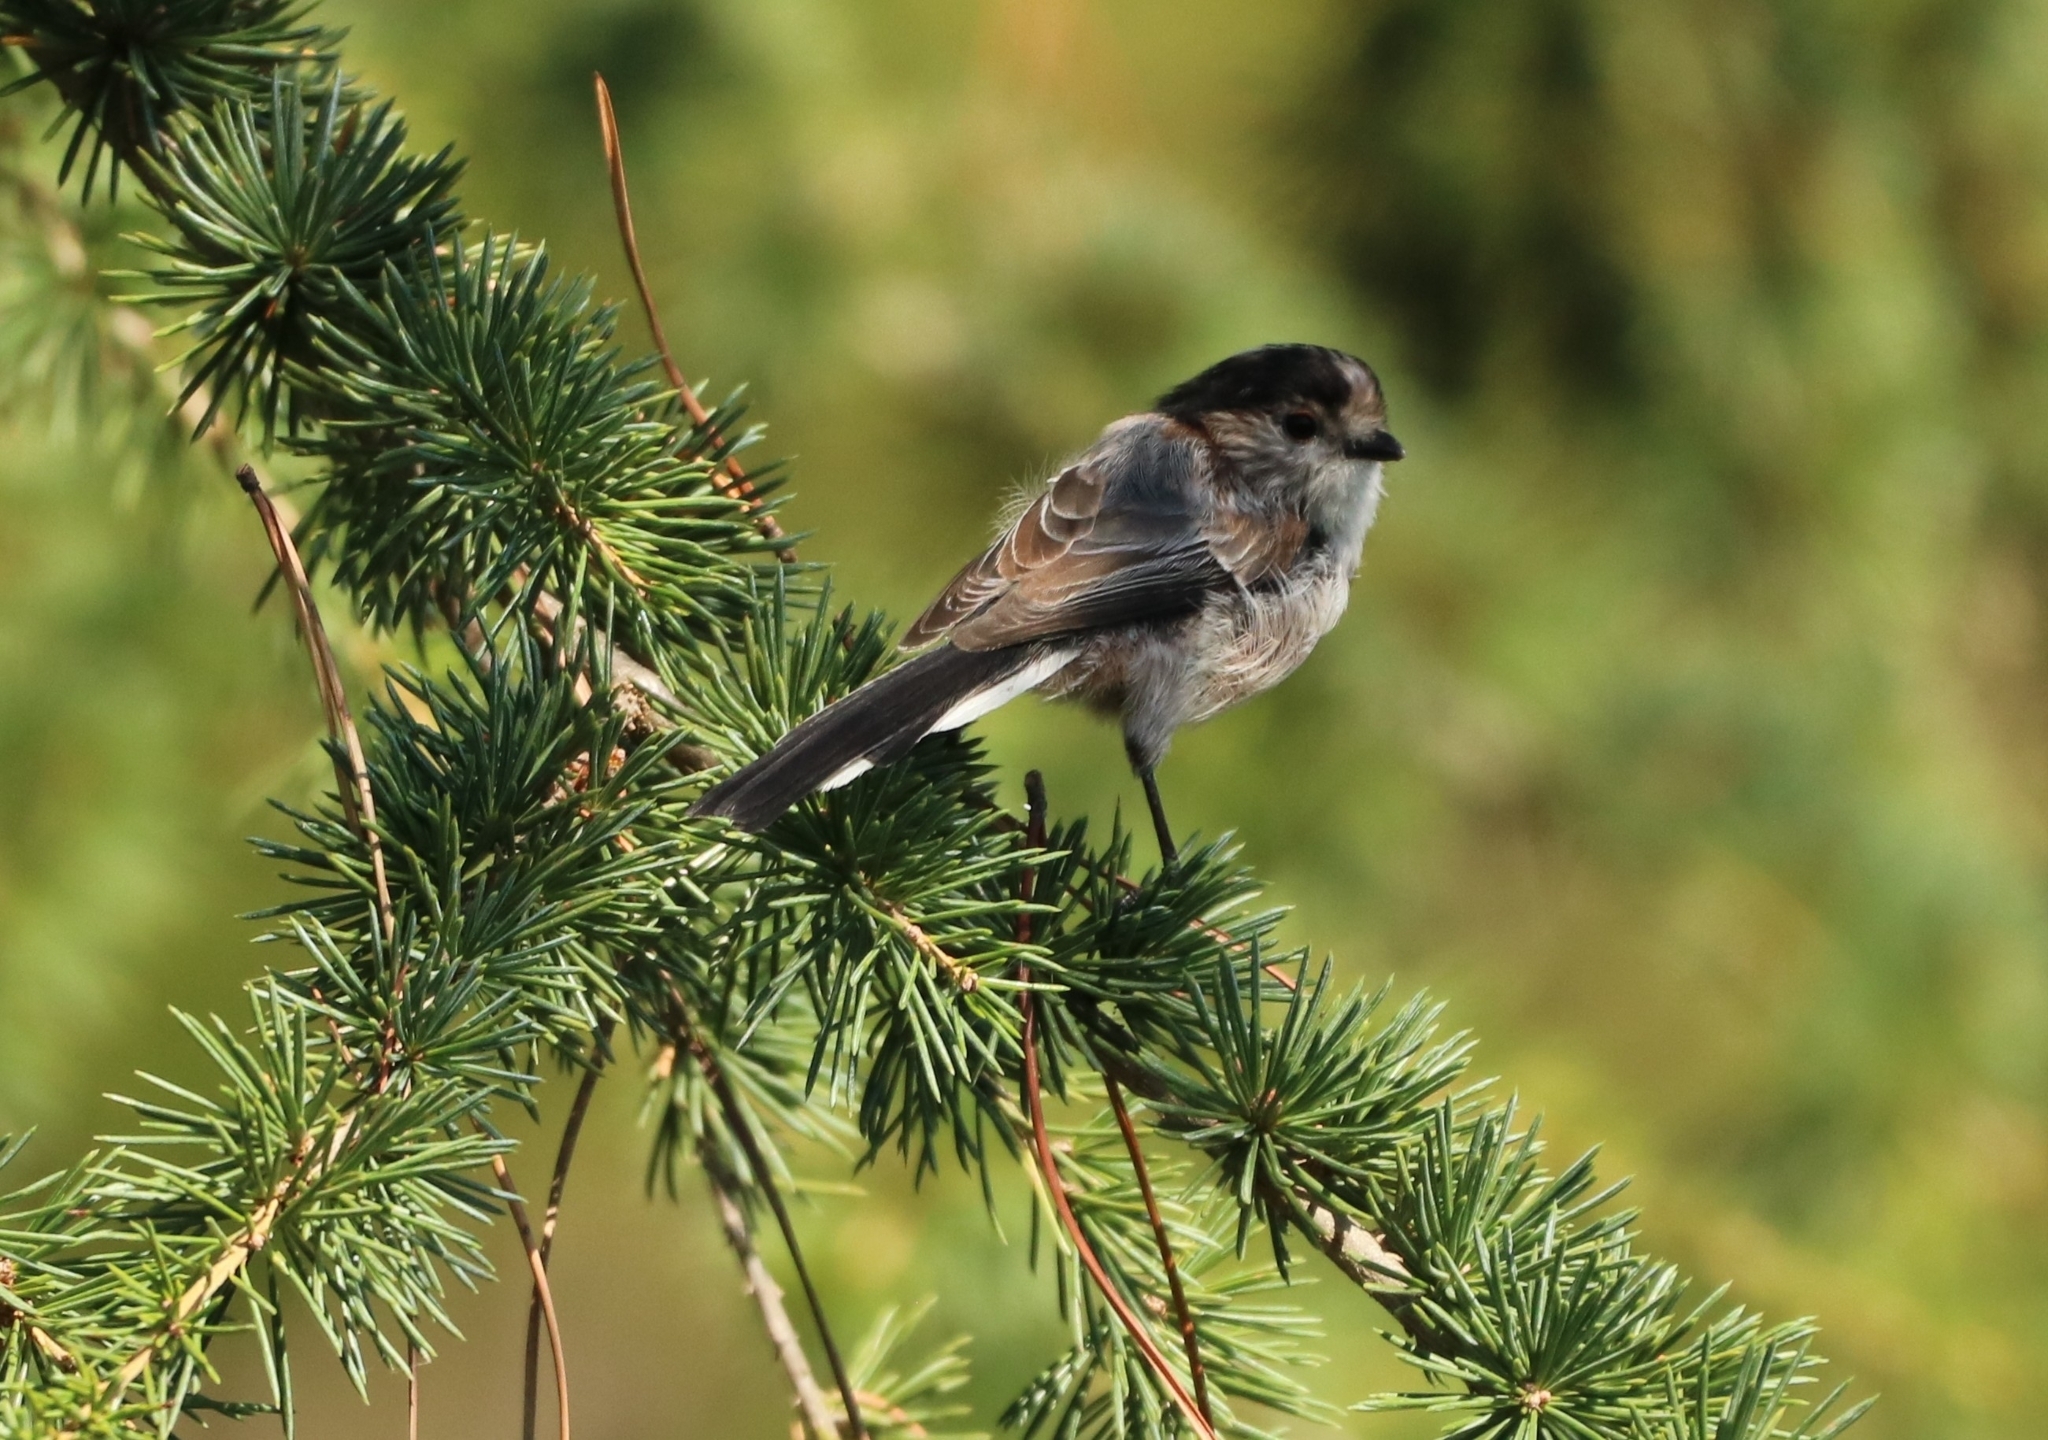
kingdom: Animalia
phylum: Chordata
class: Aves
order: Passeriformes
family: Aegithalidae
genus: Aegithalos
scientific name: Aegithalos caudatus
